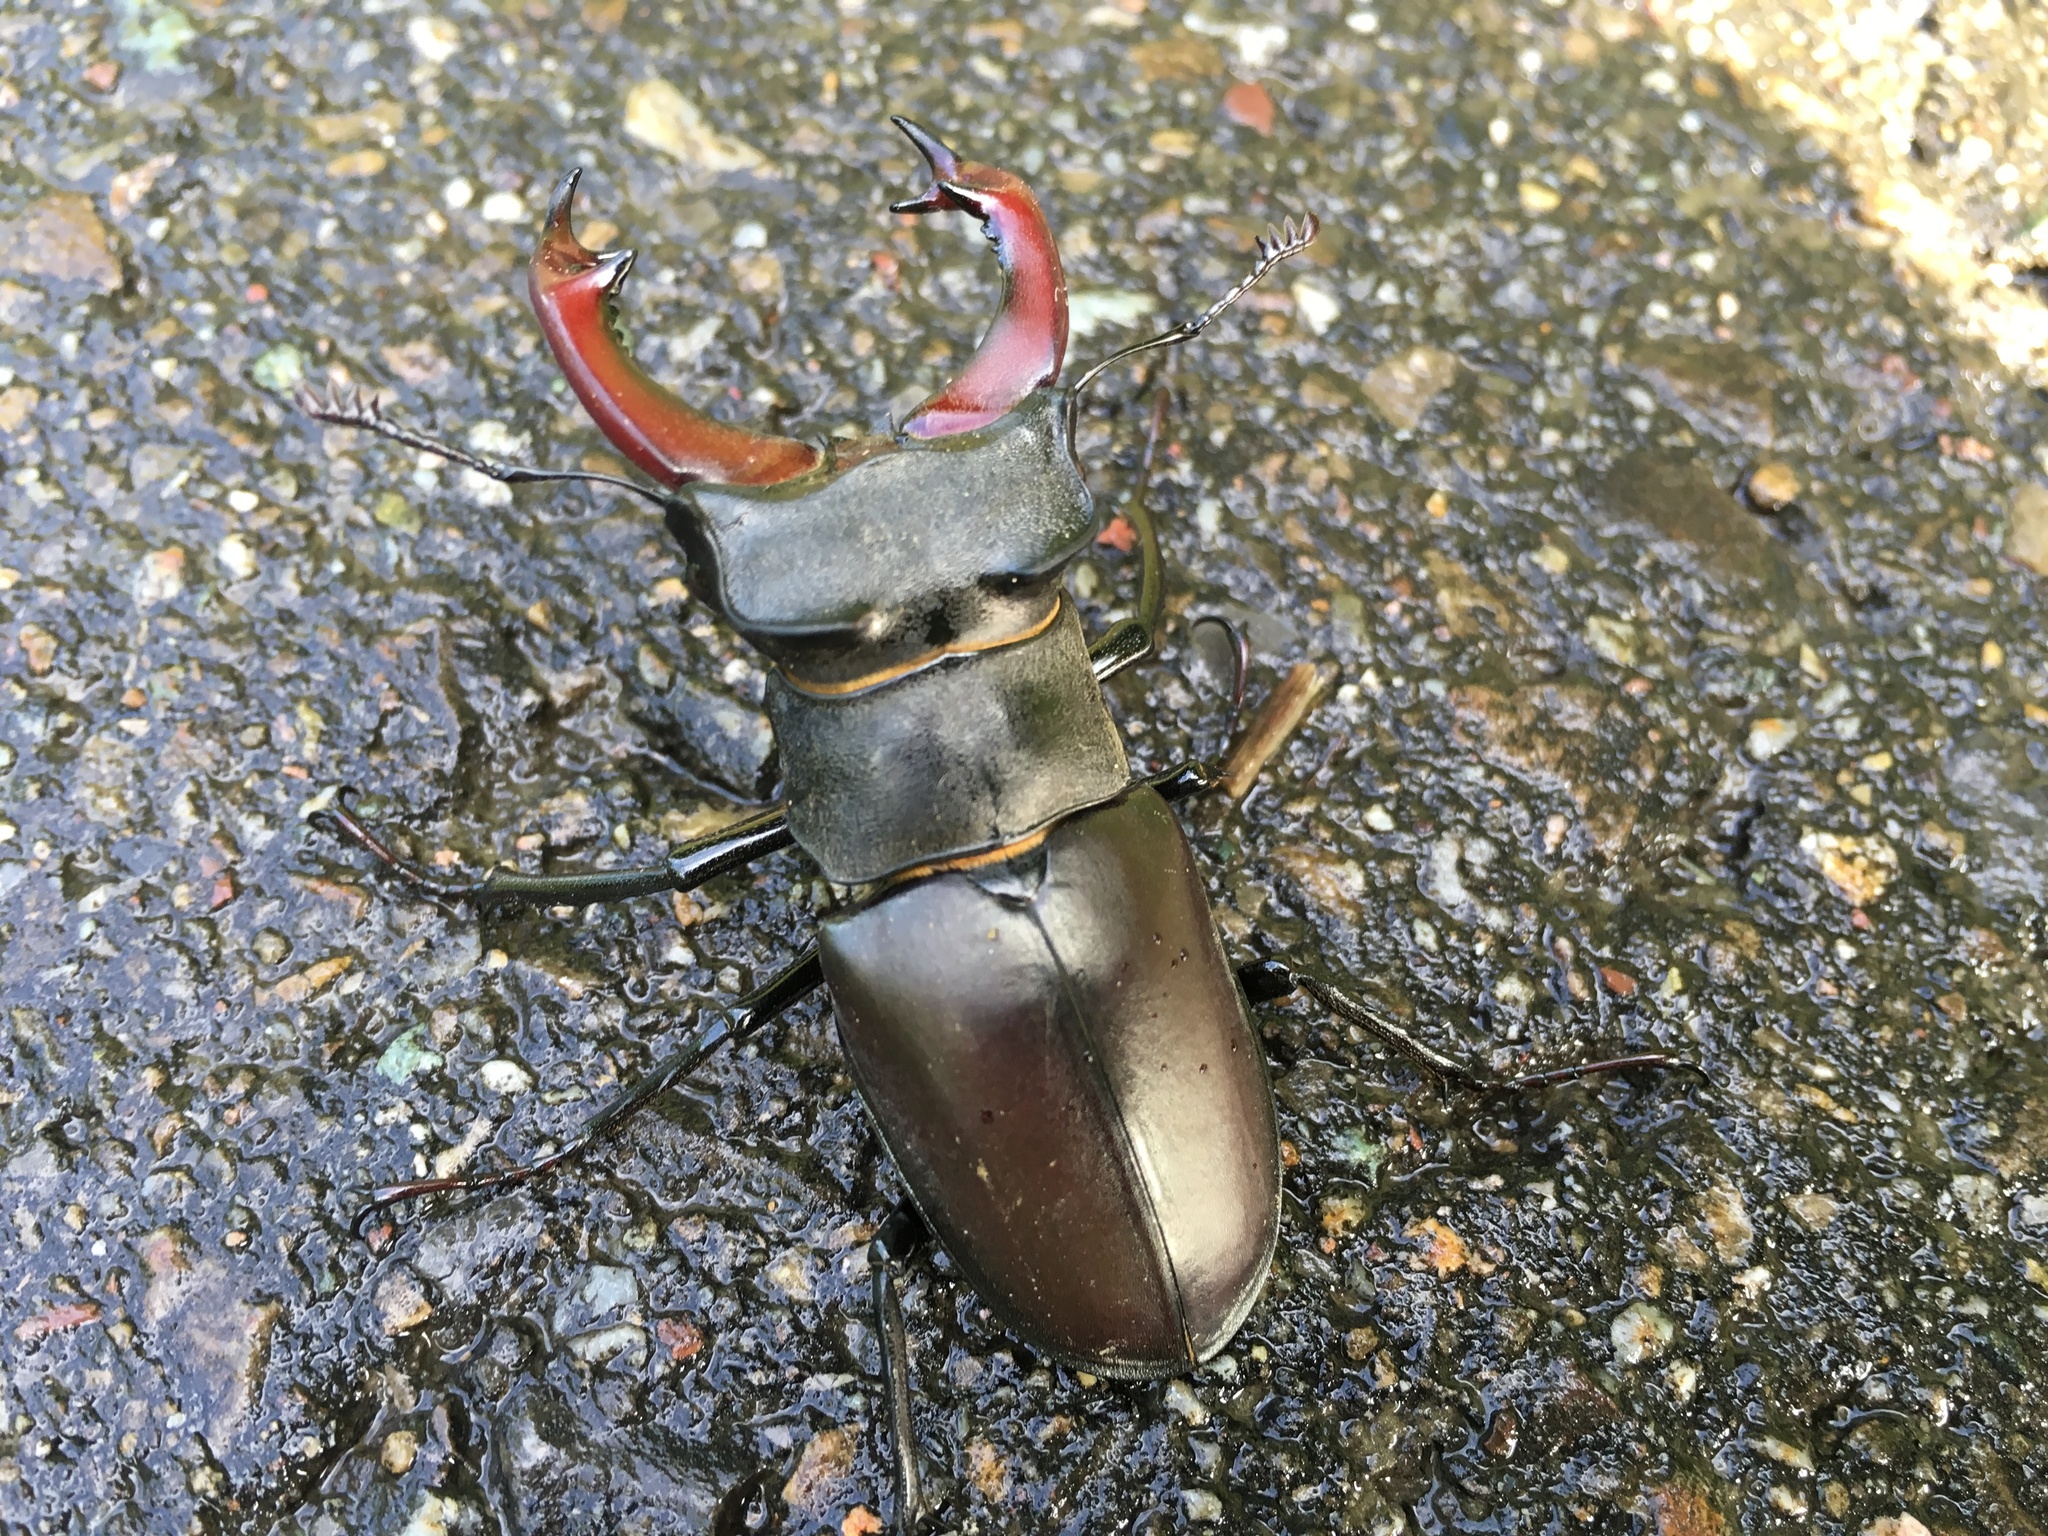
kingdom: Animalia
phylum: Arthropoda
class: Insecta
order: Coleoptera
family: Lucanidae
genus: Lucanus
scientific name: Lucanus cervus
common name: Stag beetle
